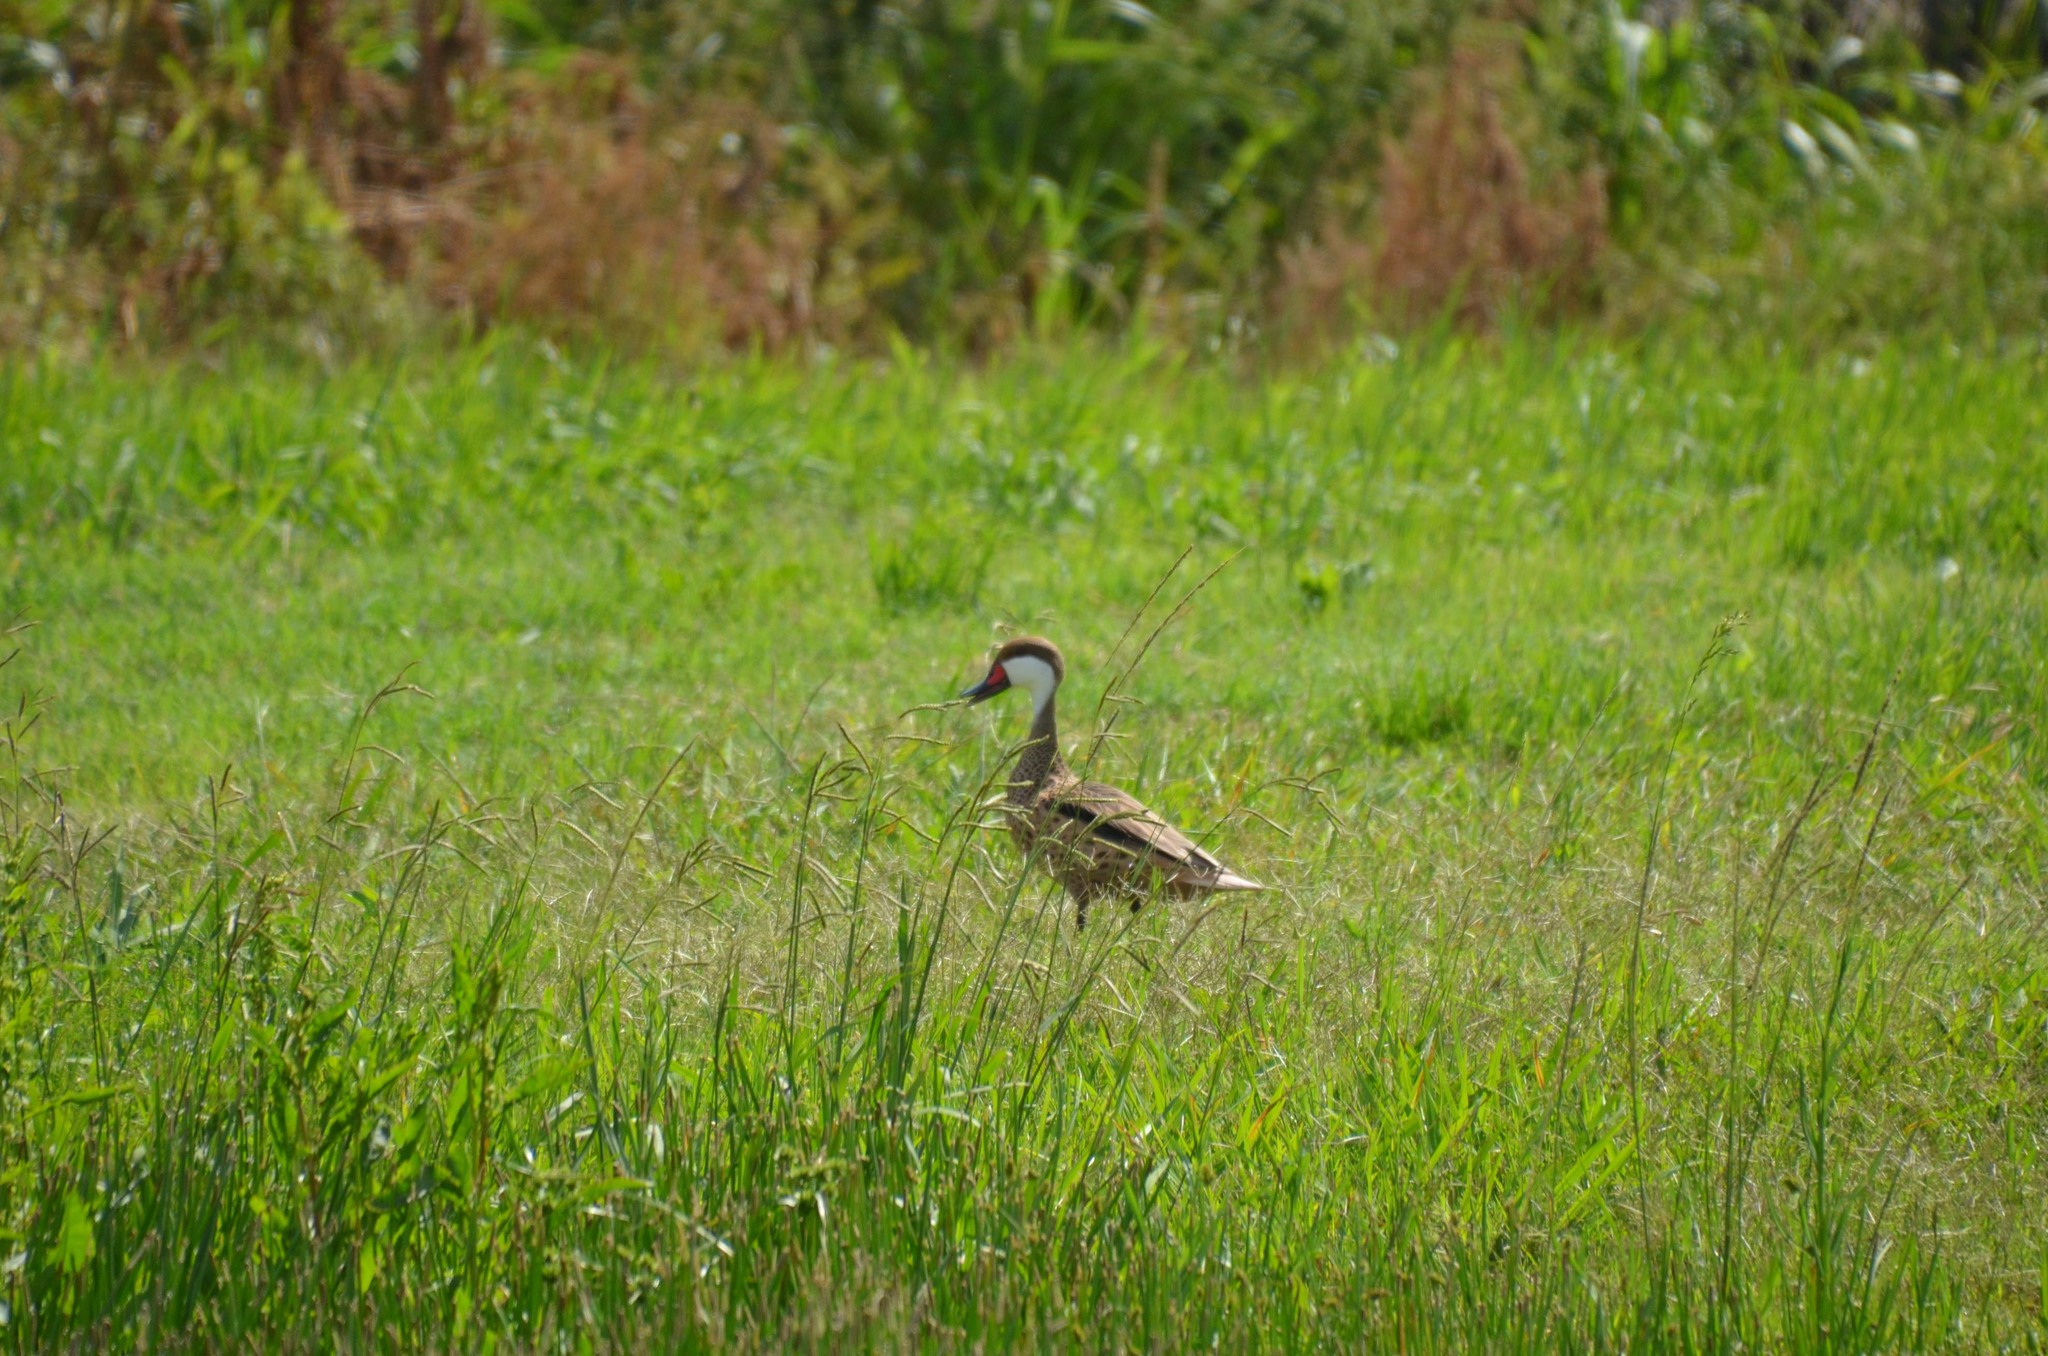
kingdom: Animalia
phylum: Chordata
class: Aves
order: Anseriformes
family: Anatidae
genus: Anas
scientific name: Anas bahamensis
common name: White-cheeked pintail
